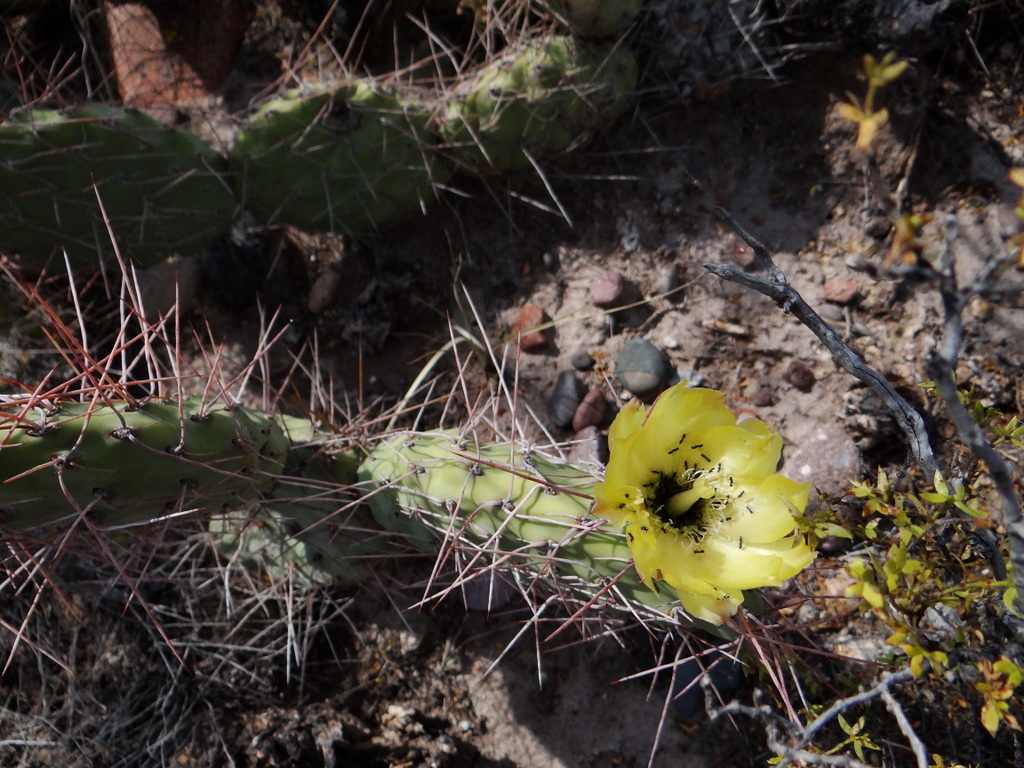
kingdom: Plantae
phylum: Tracheophyta
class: Magnoliopsida
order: Caryophyllales
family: Cactaceae
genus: Opuntia
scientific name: Opuntia sulphurea
